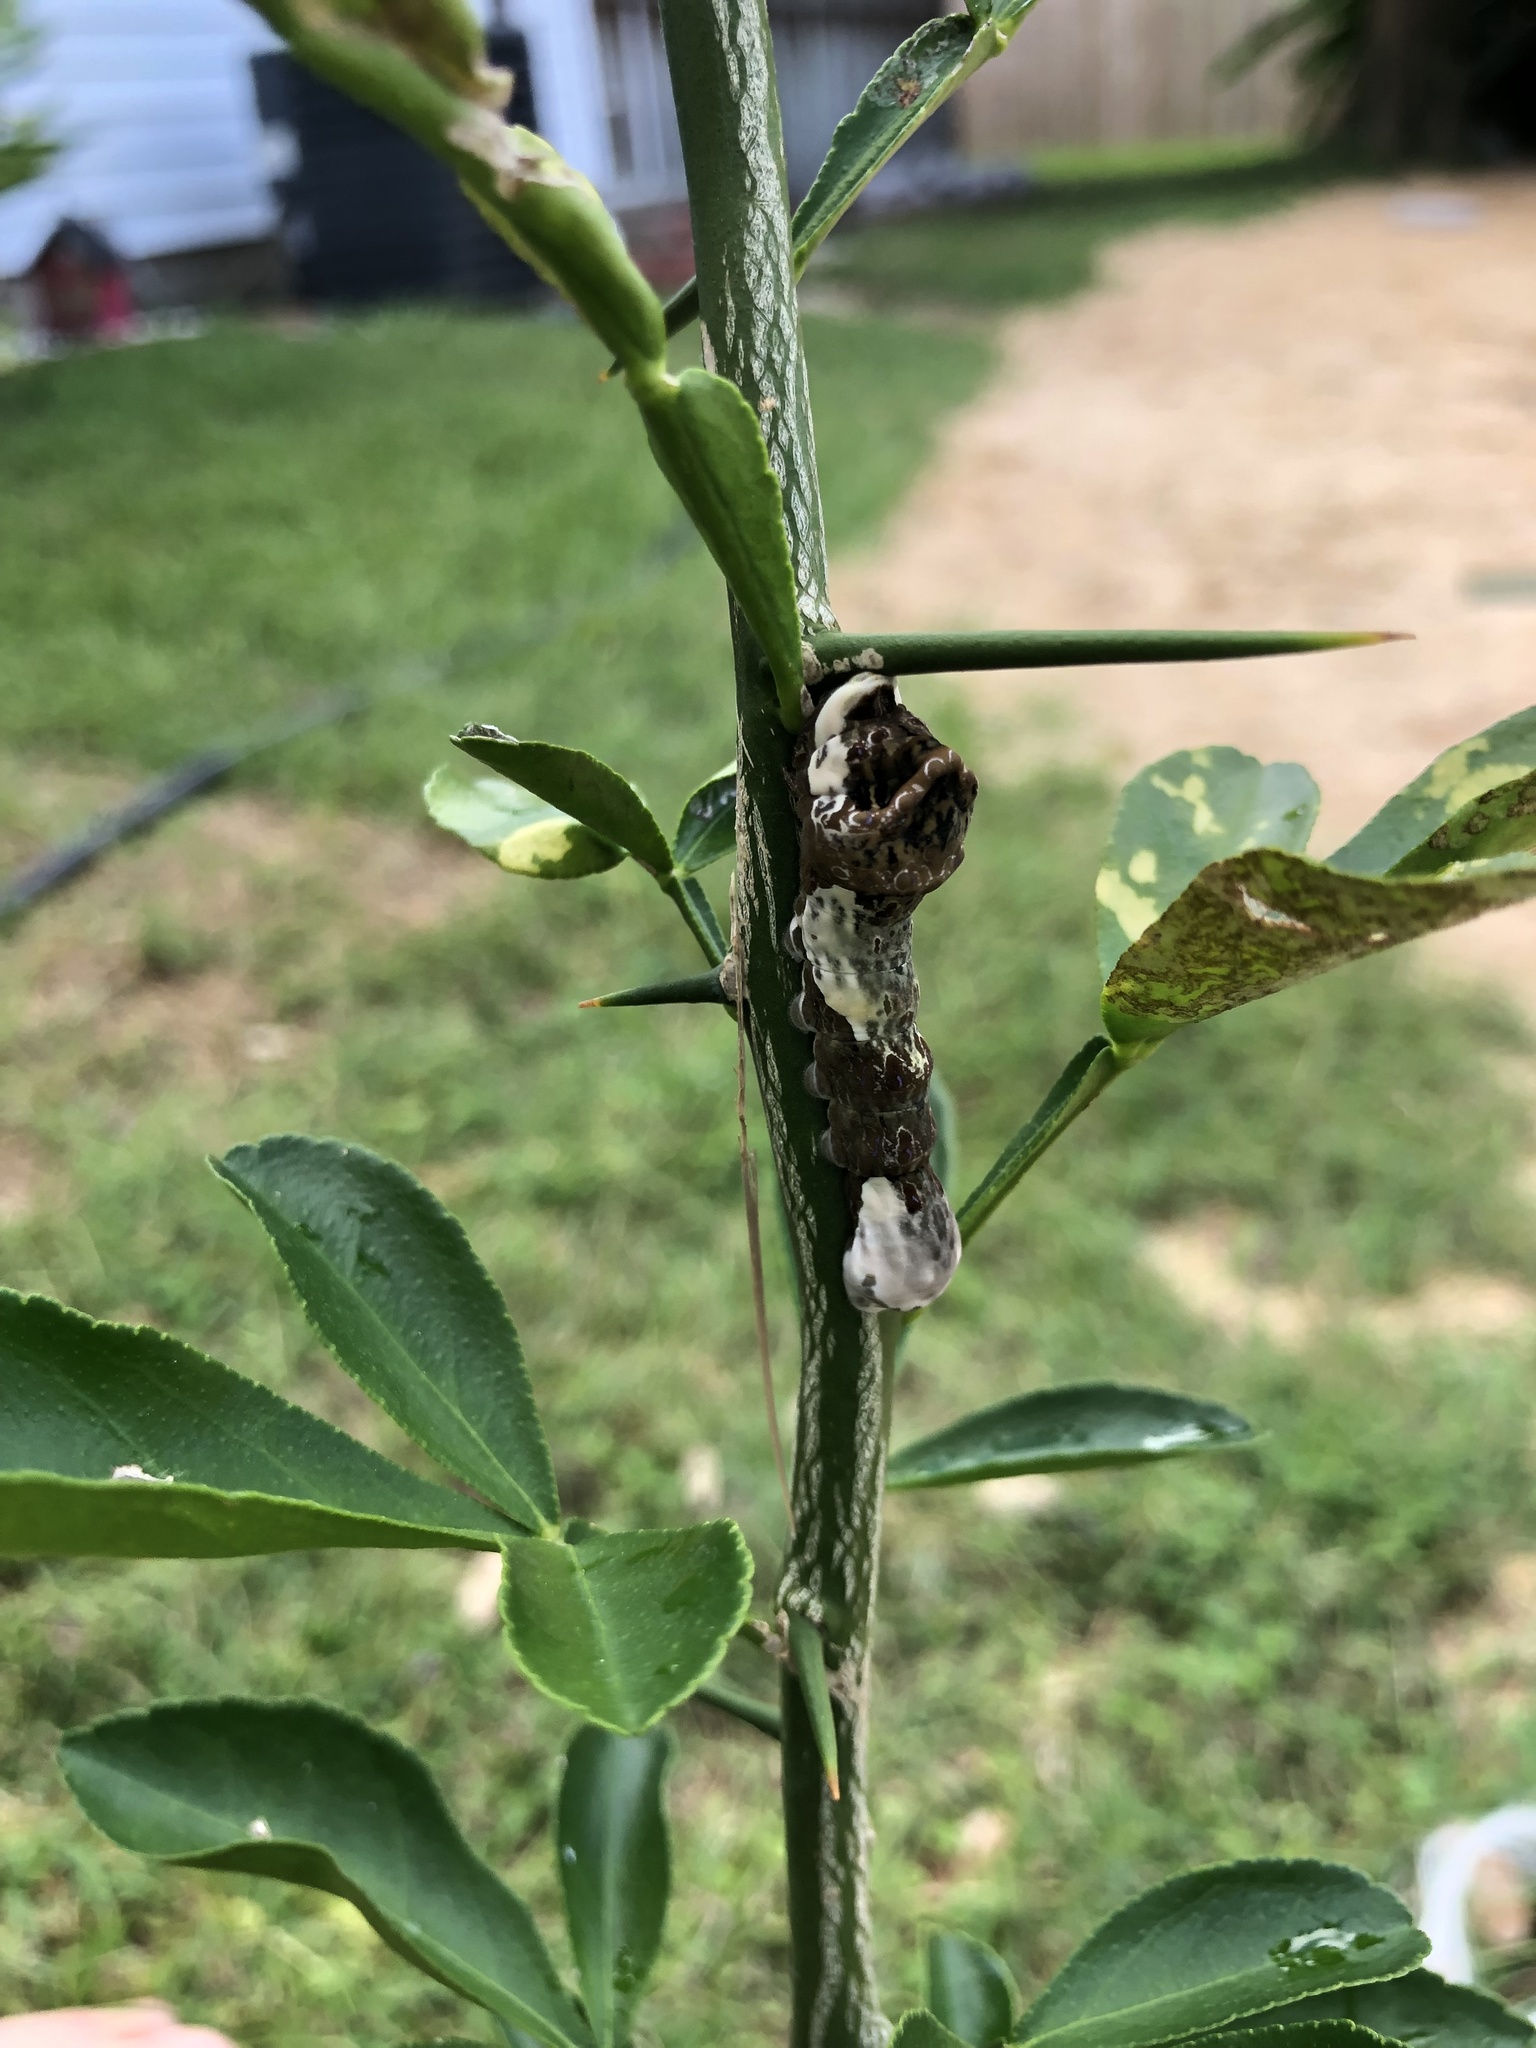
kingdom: Animalia
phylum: Arthropoda
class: Insecta
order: Lepidoptera
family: Papilionidae
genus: Papilio
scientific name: Papilio cresphontes
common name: Giant swallowtail
